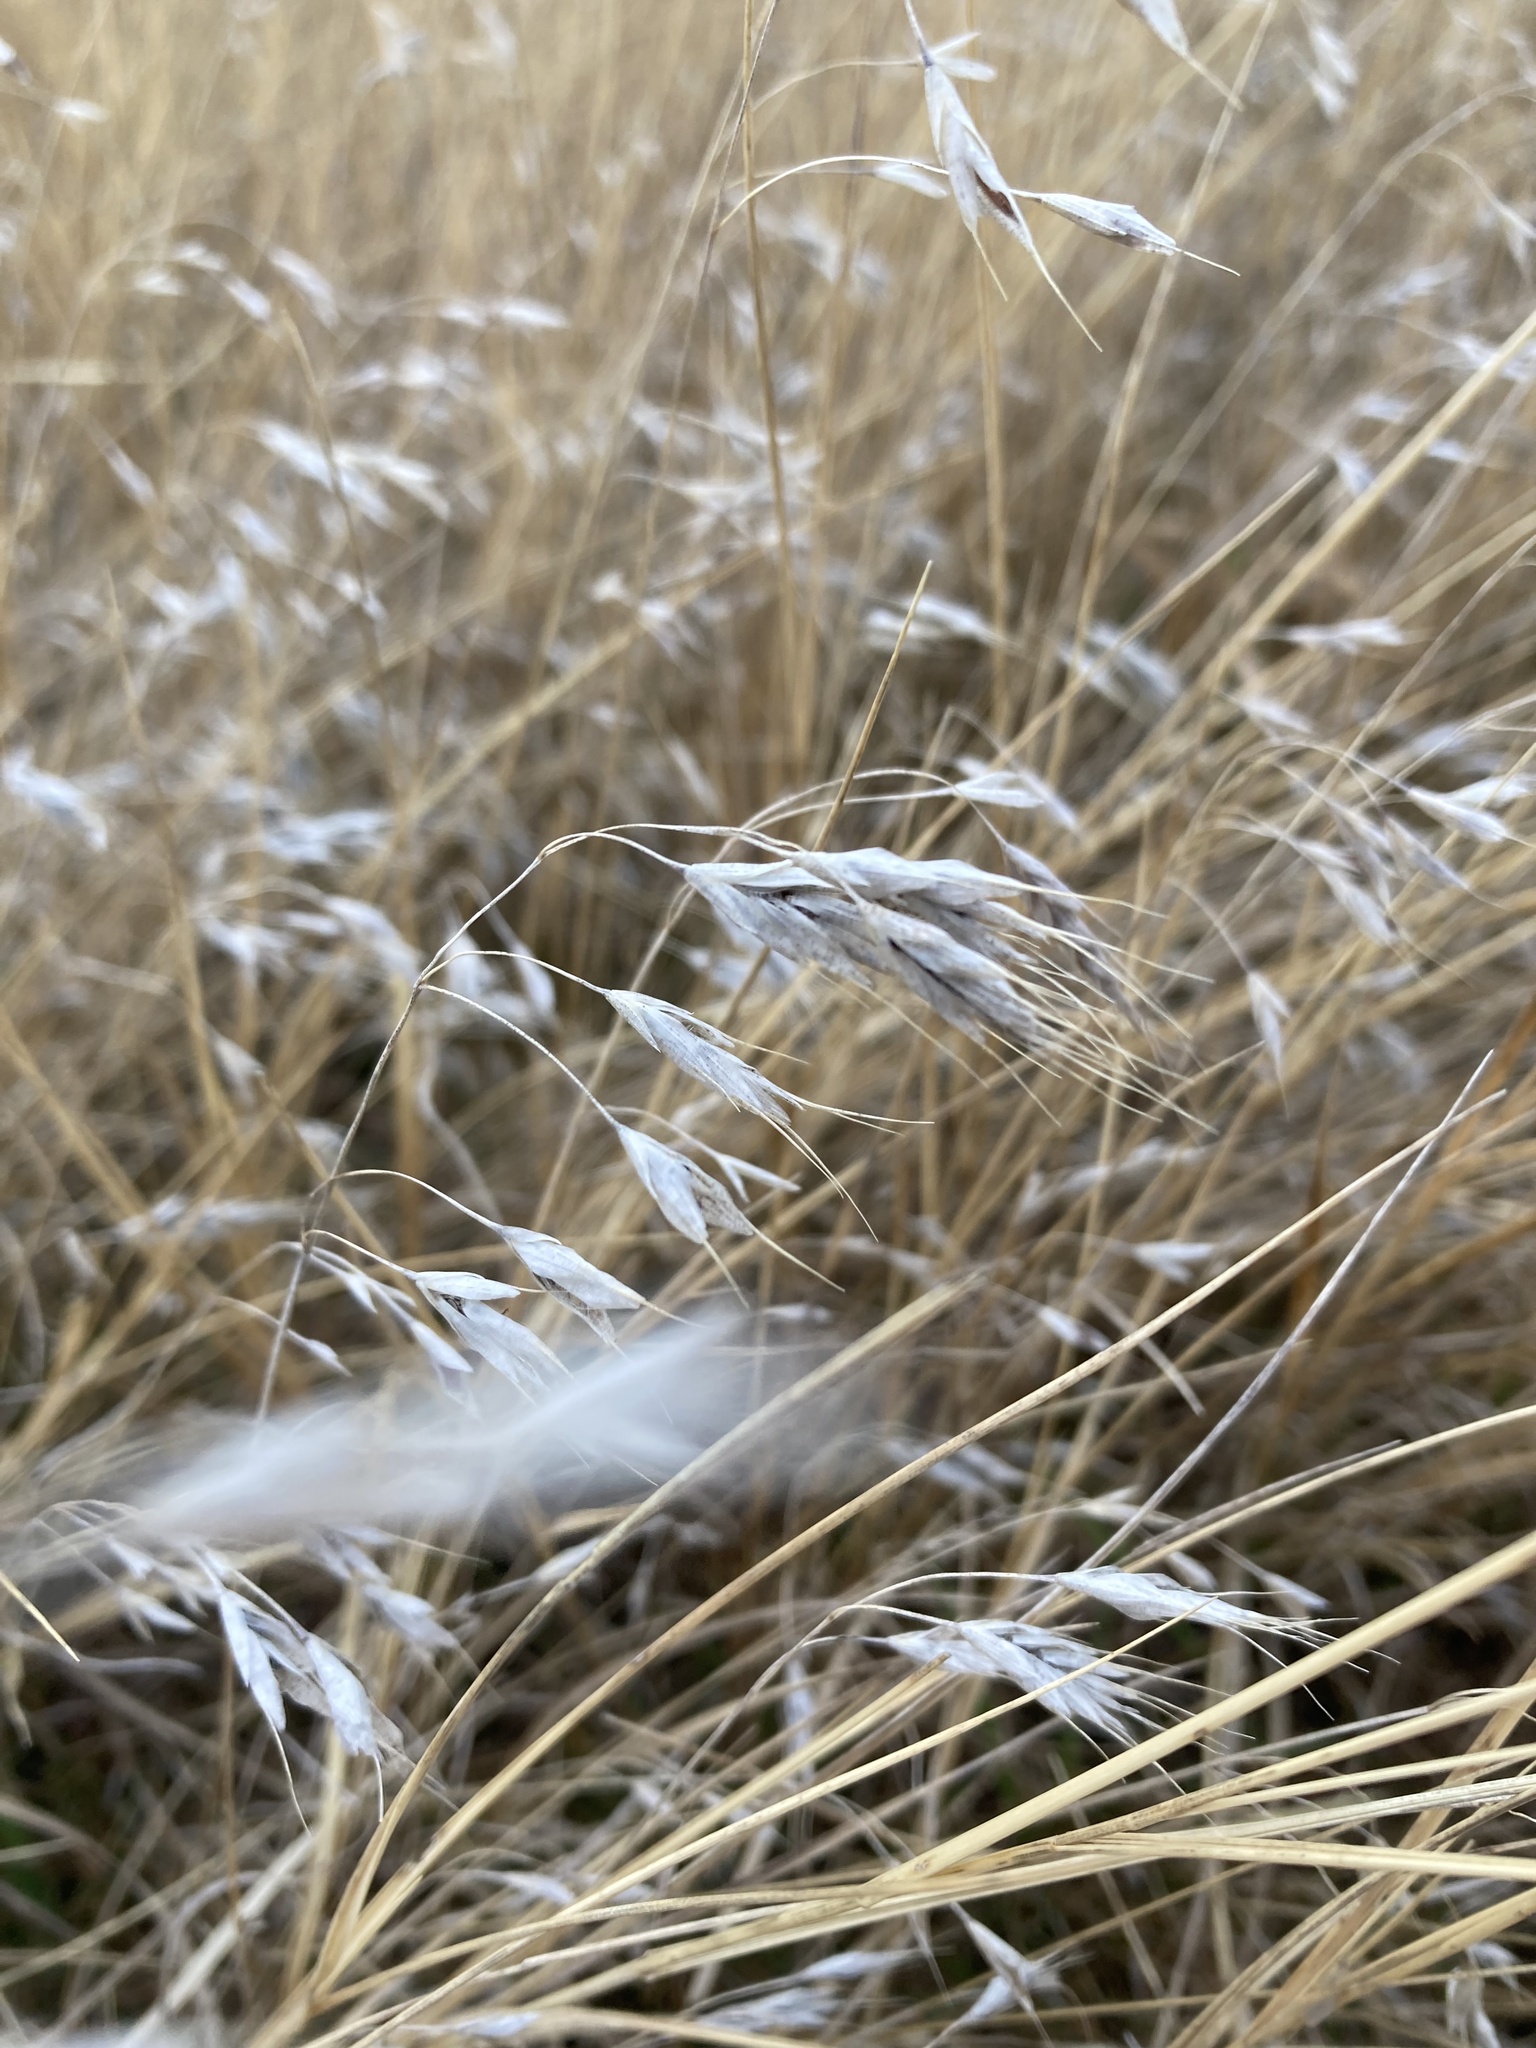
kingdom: Plantae
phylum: Tracheophyta
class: Liliopsida
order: Poales
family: Poaceae
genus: Bromus
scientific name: Bromus tectorum
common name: Cheatgrass
